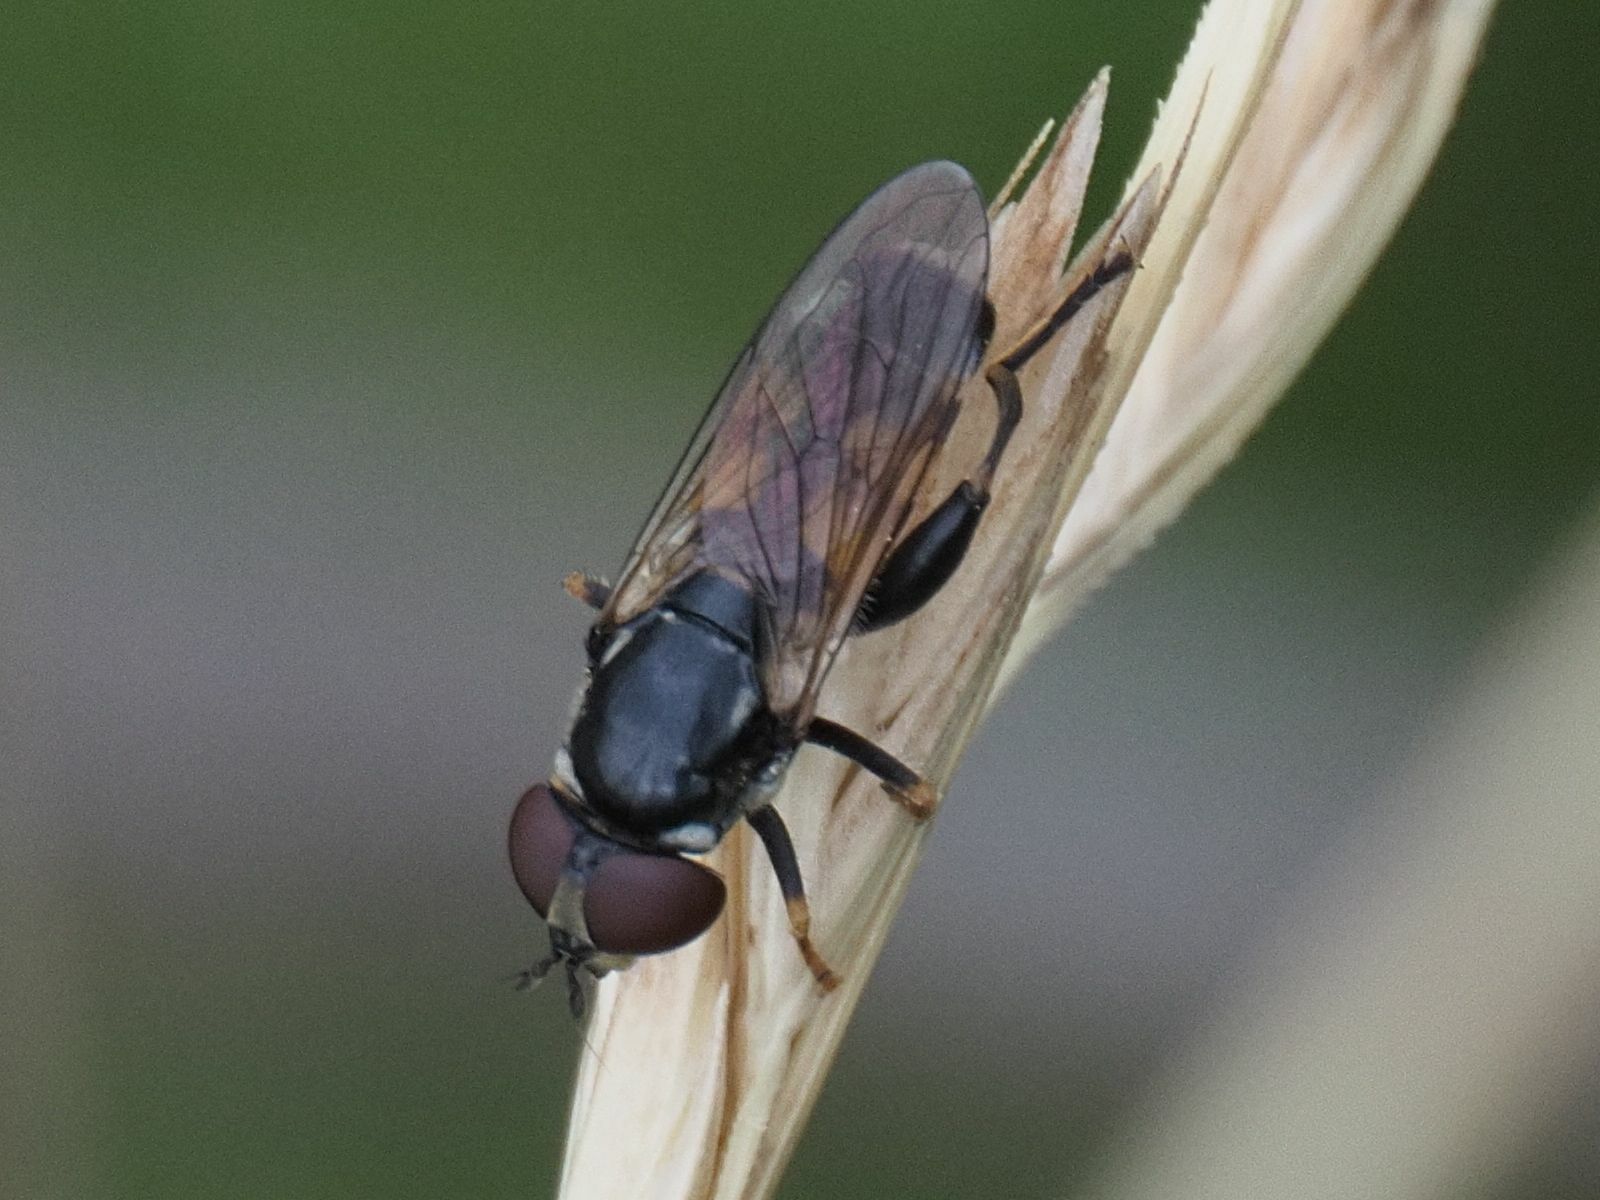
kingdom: Animalia
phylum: Arthropoda
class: Insecta
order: Diptera
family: Syrphidae
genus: Tropidia
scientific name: Tropidia scita
